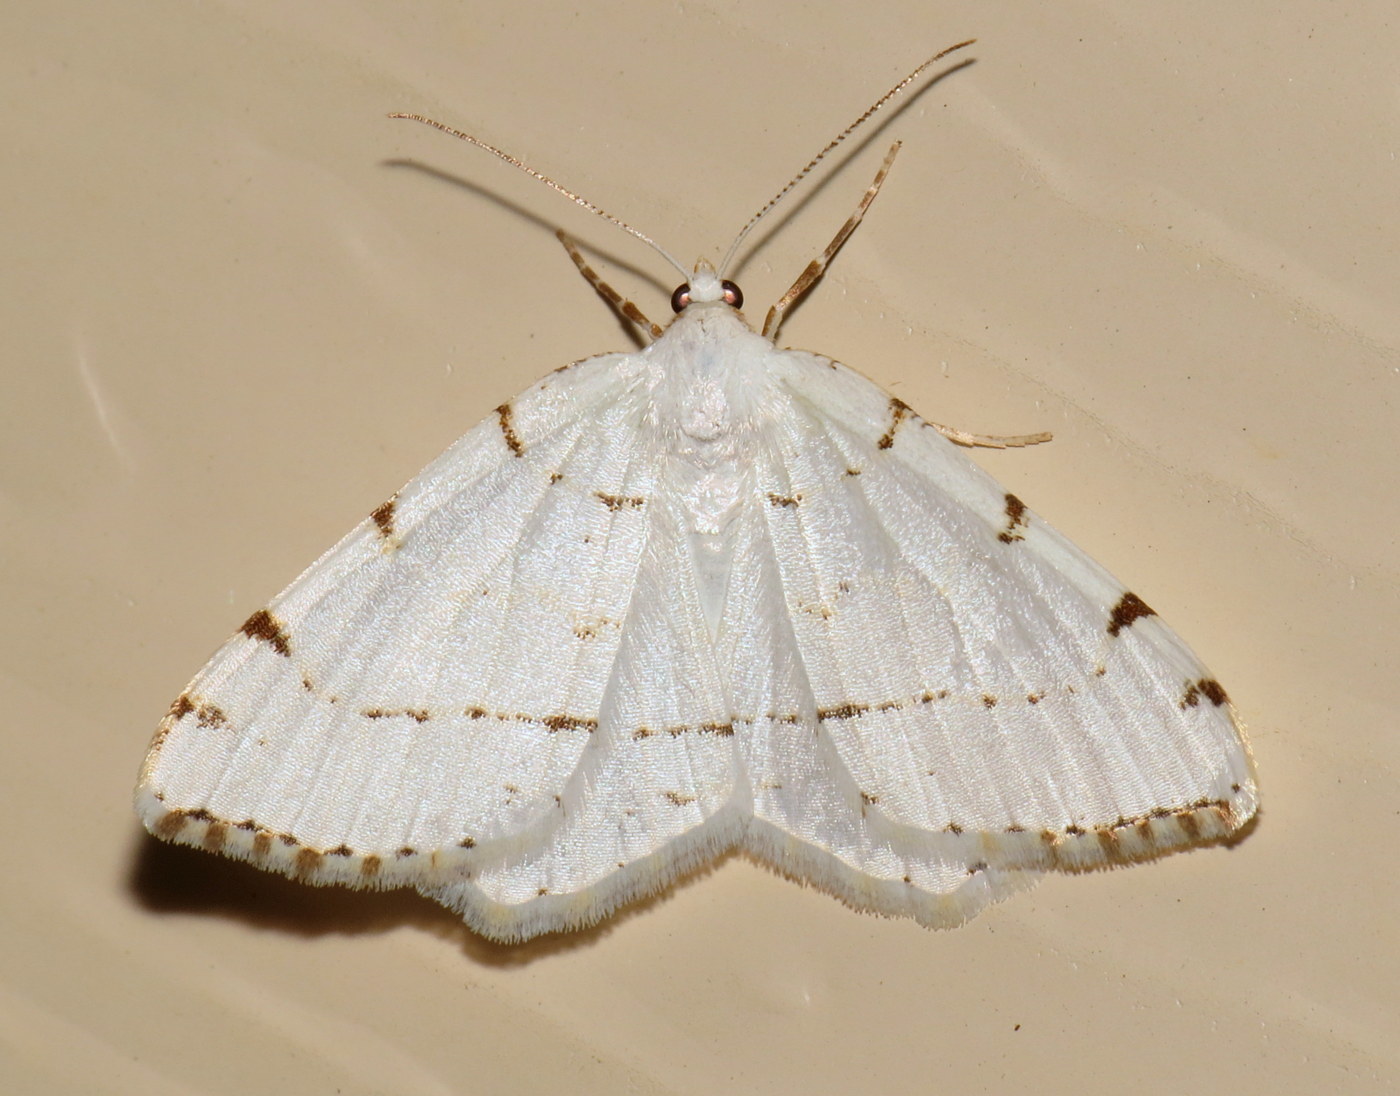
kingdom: Animalia
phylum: Arthropoda
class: Insecta
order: Lepidoptera
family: Geometridae
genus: Macaria
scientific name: Macaria pustularia
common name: Lesser maple spanworm moth
